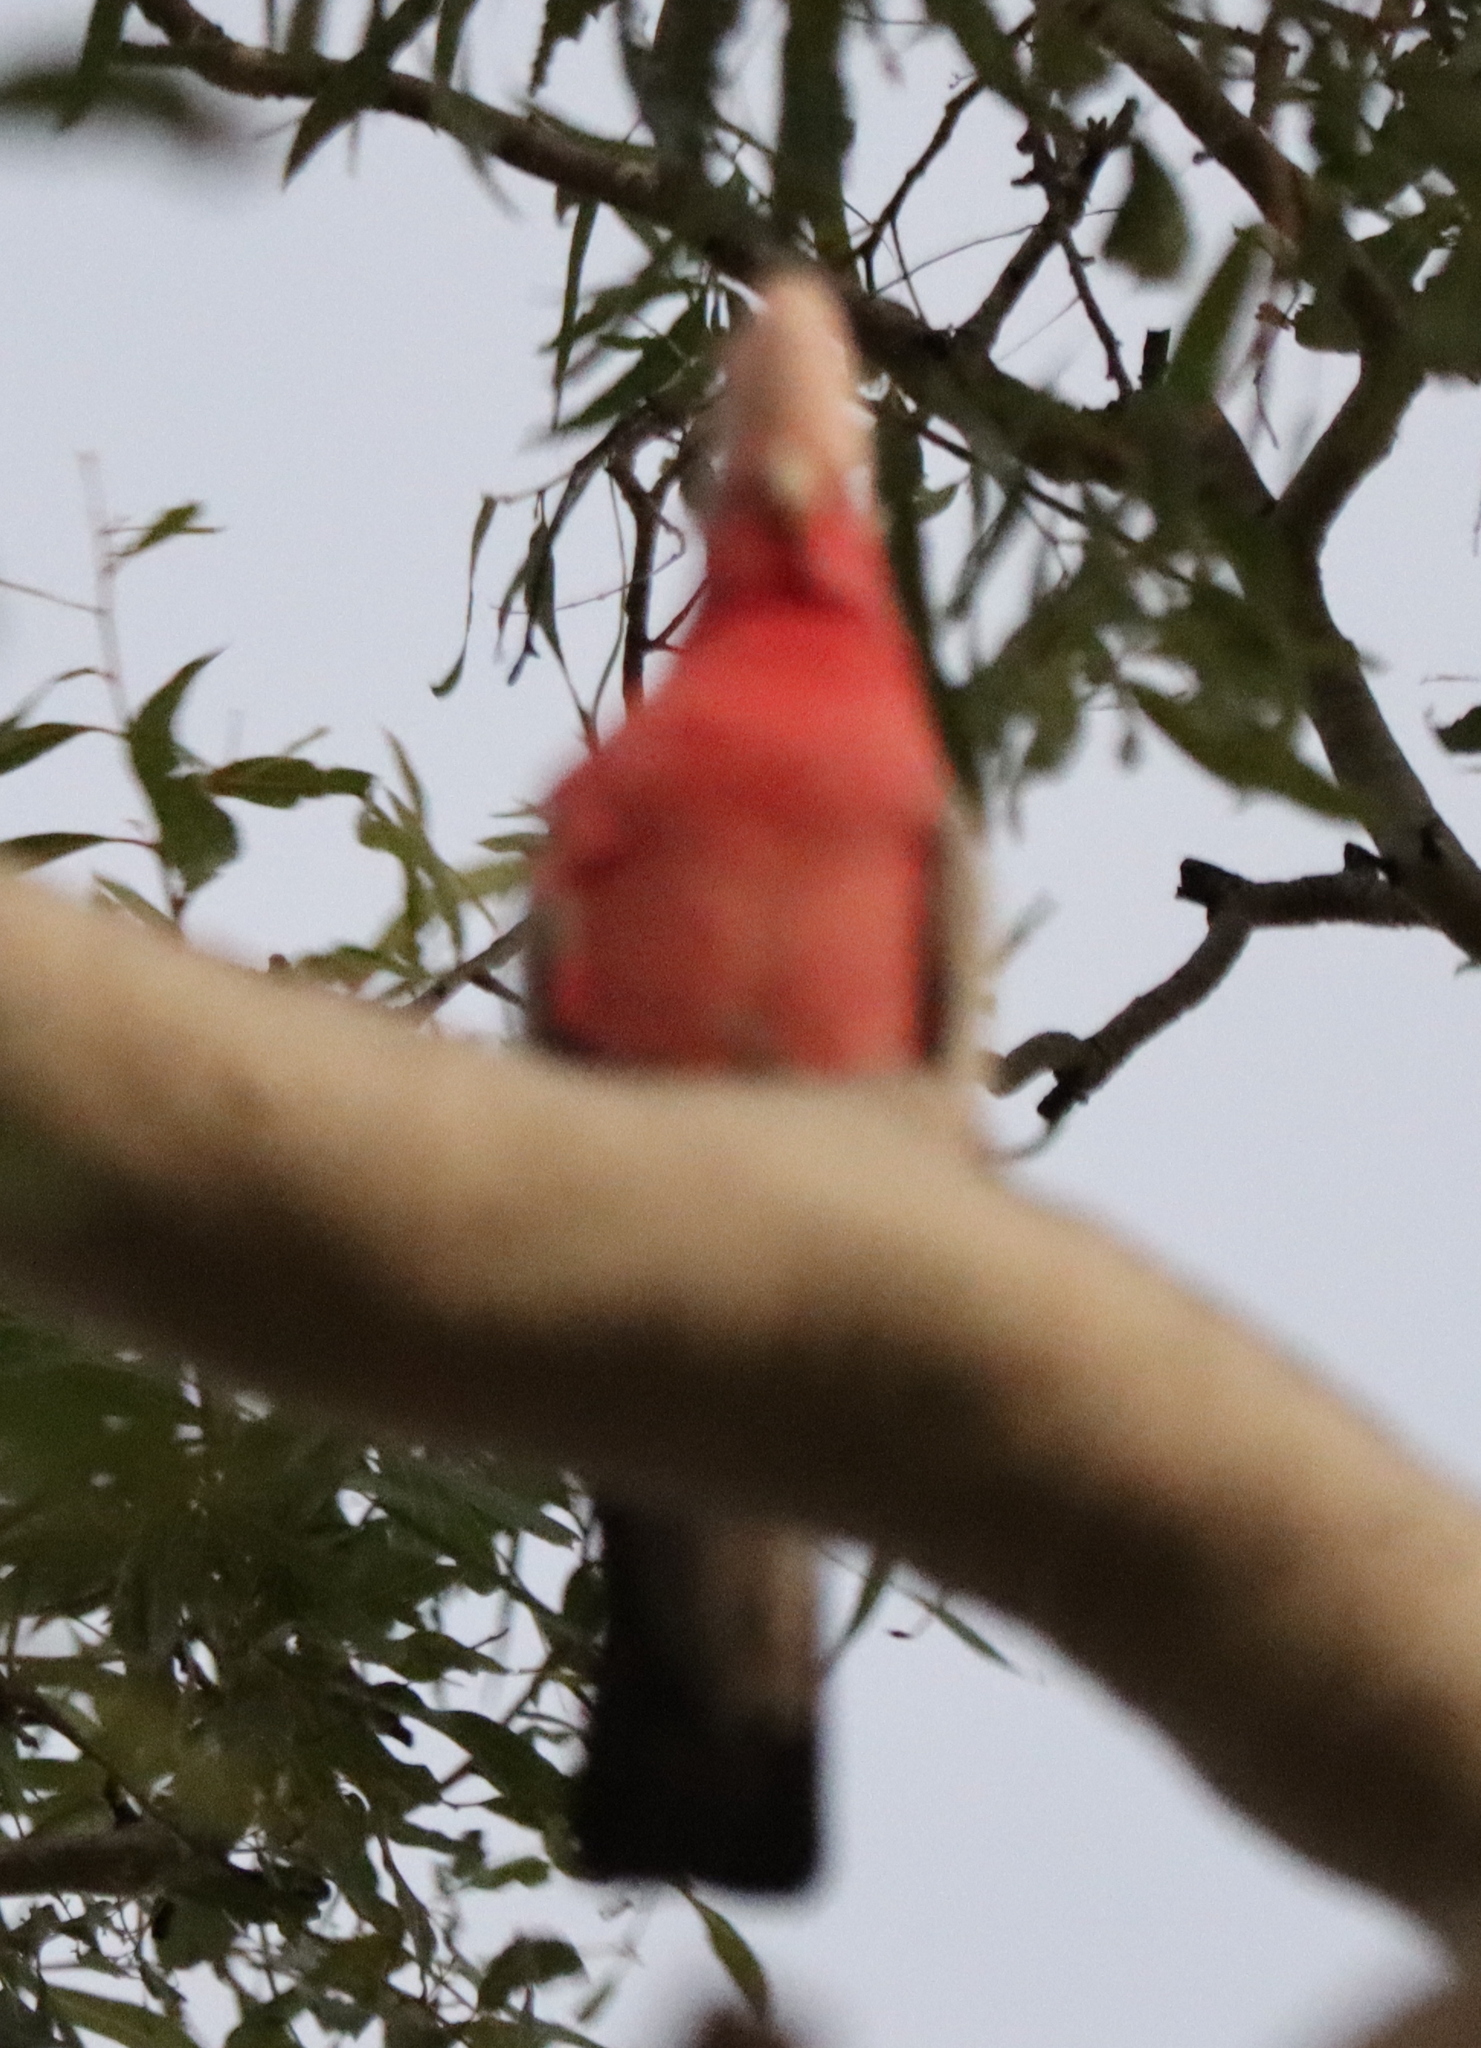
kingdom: Animalia
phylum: Chordata
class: Aves
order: Psittaciformes
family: Psittacidae
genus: Eolophus
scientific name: Eolophus roseicapilla
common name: Galah
